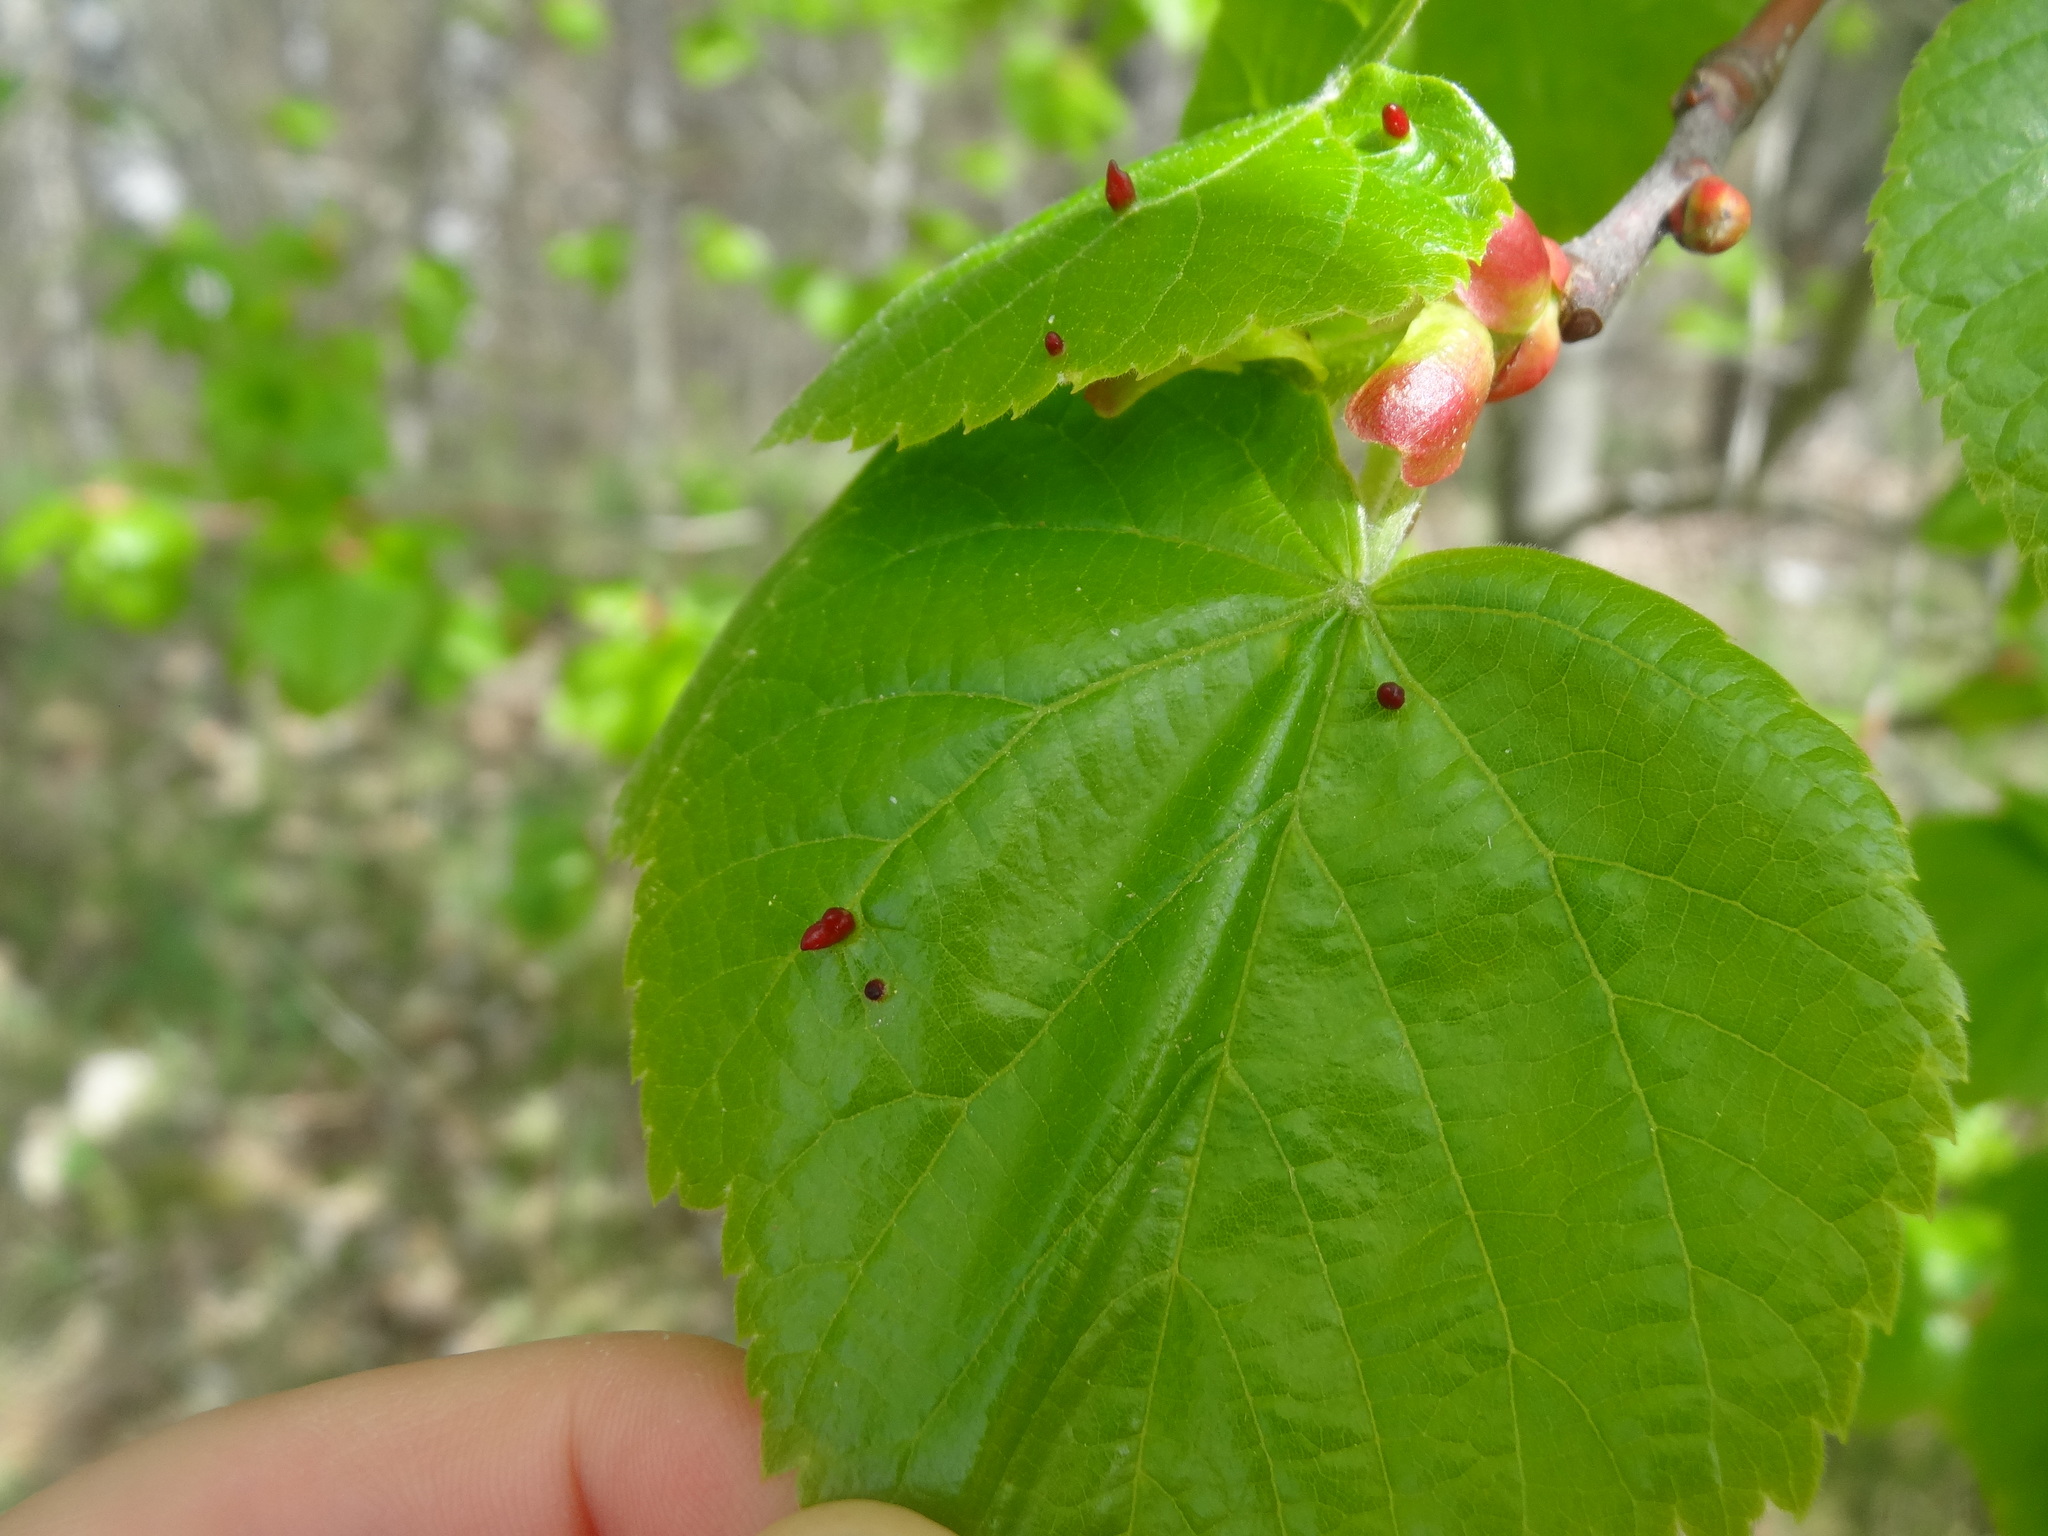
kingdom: Animalia
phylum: Arthropoda
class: Arachnida
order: Trombidiformes
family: Eriophyidae
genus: Eriophyes
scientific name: Eriophyes tiliae
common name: Red nail gall mite
